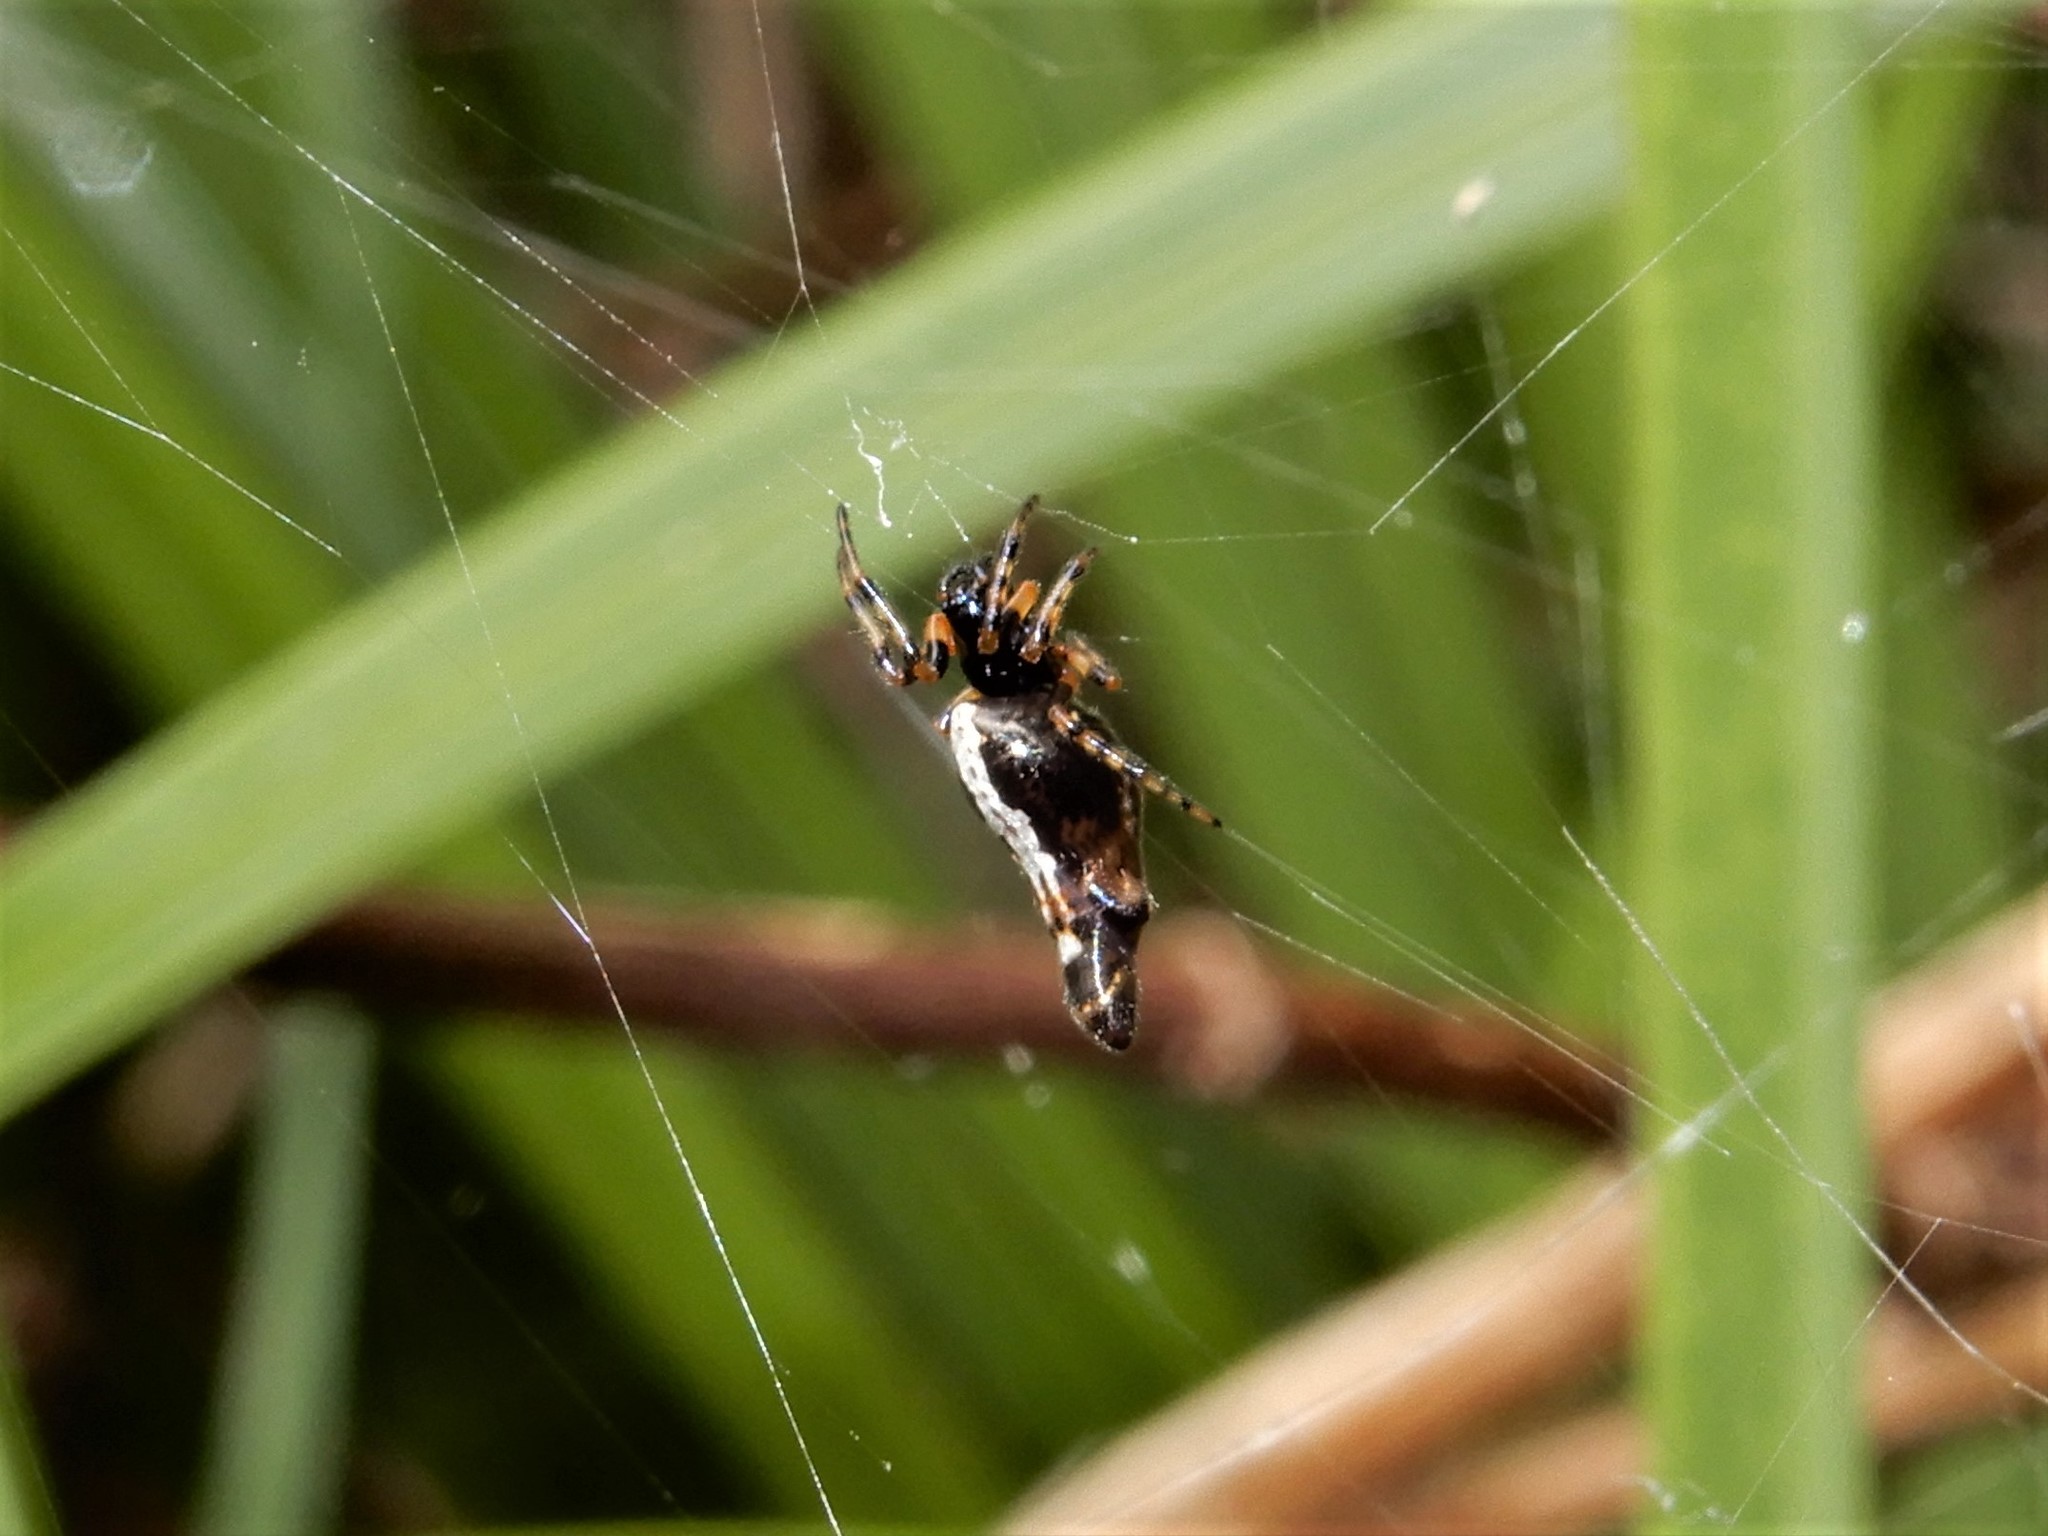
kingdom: Animalia
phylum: Arthropoda
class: Arachnida
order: Araneae
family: Araneidae
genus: Cyclosa
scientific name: Cyclosa trilobata
